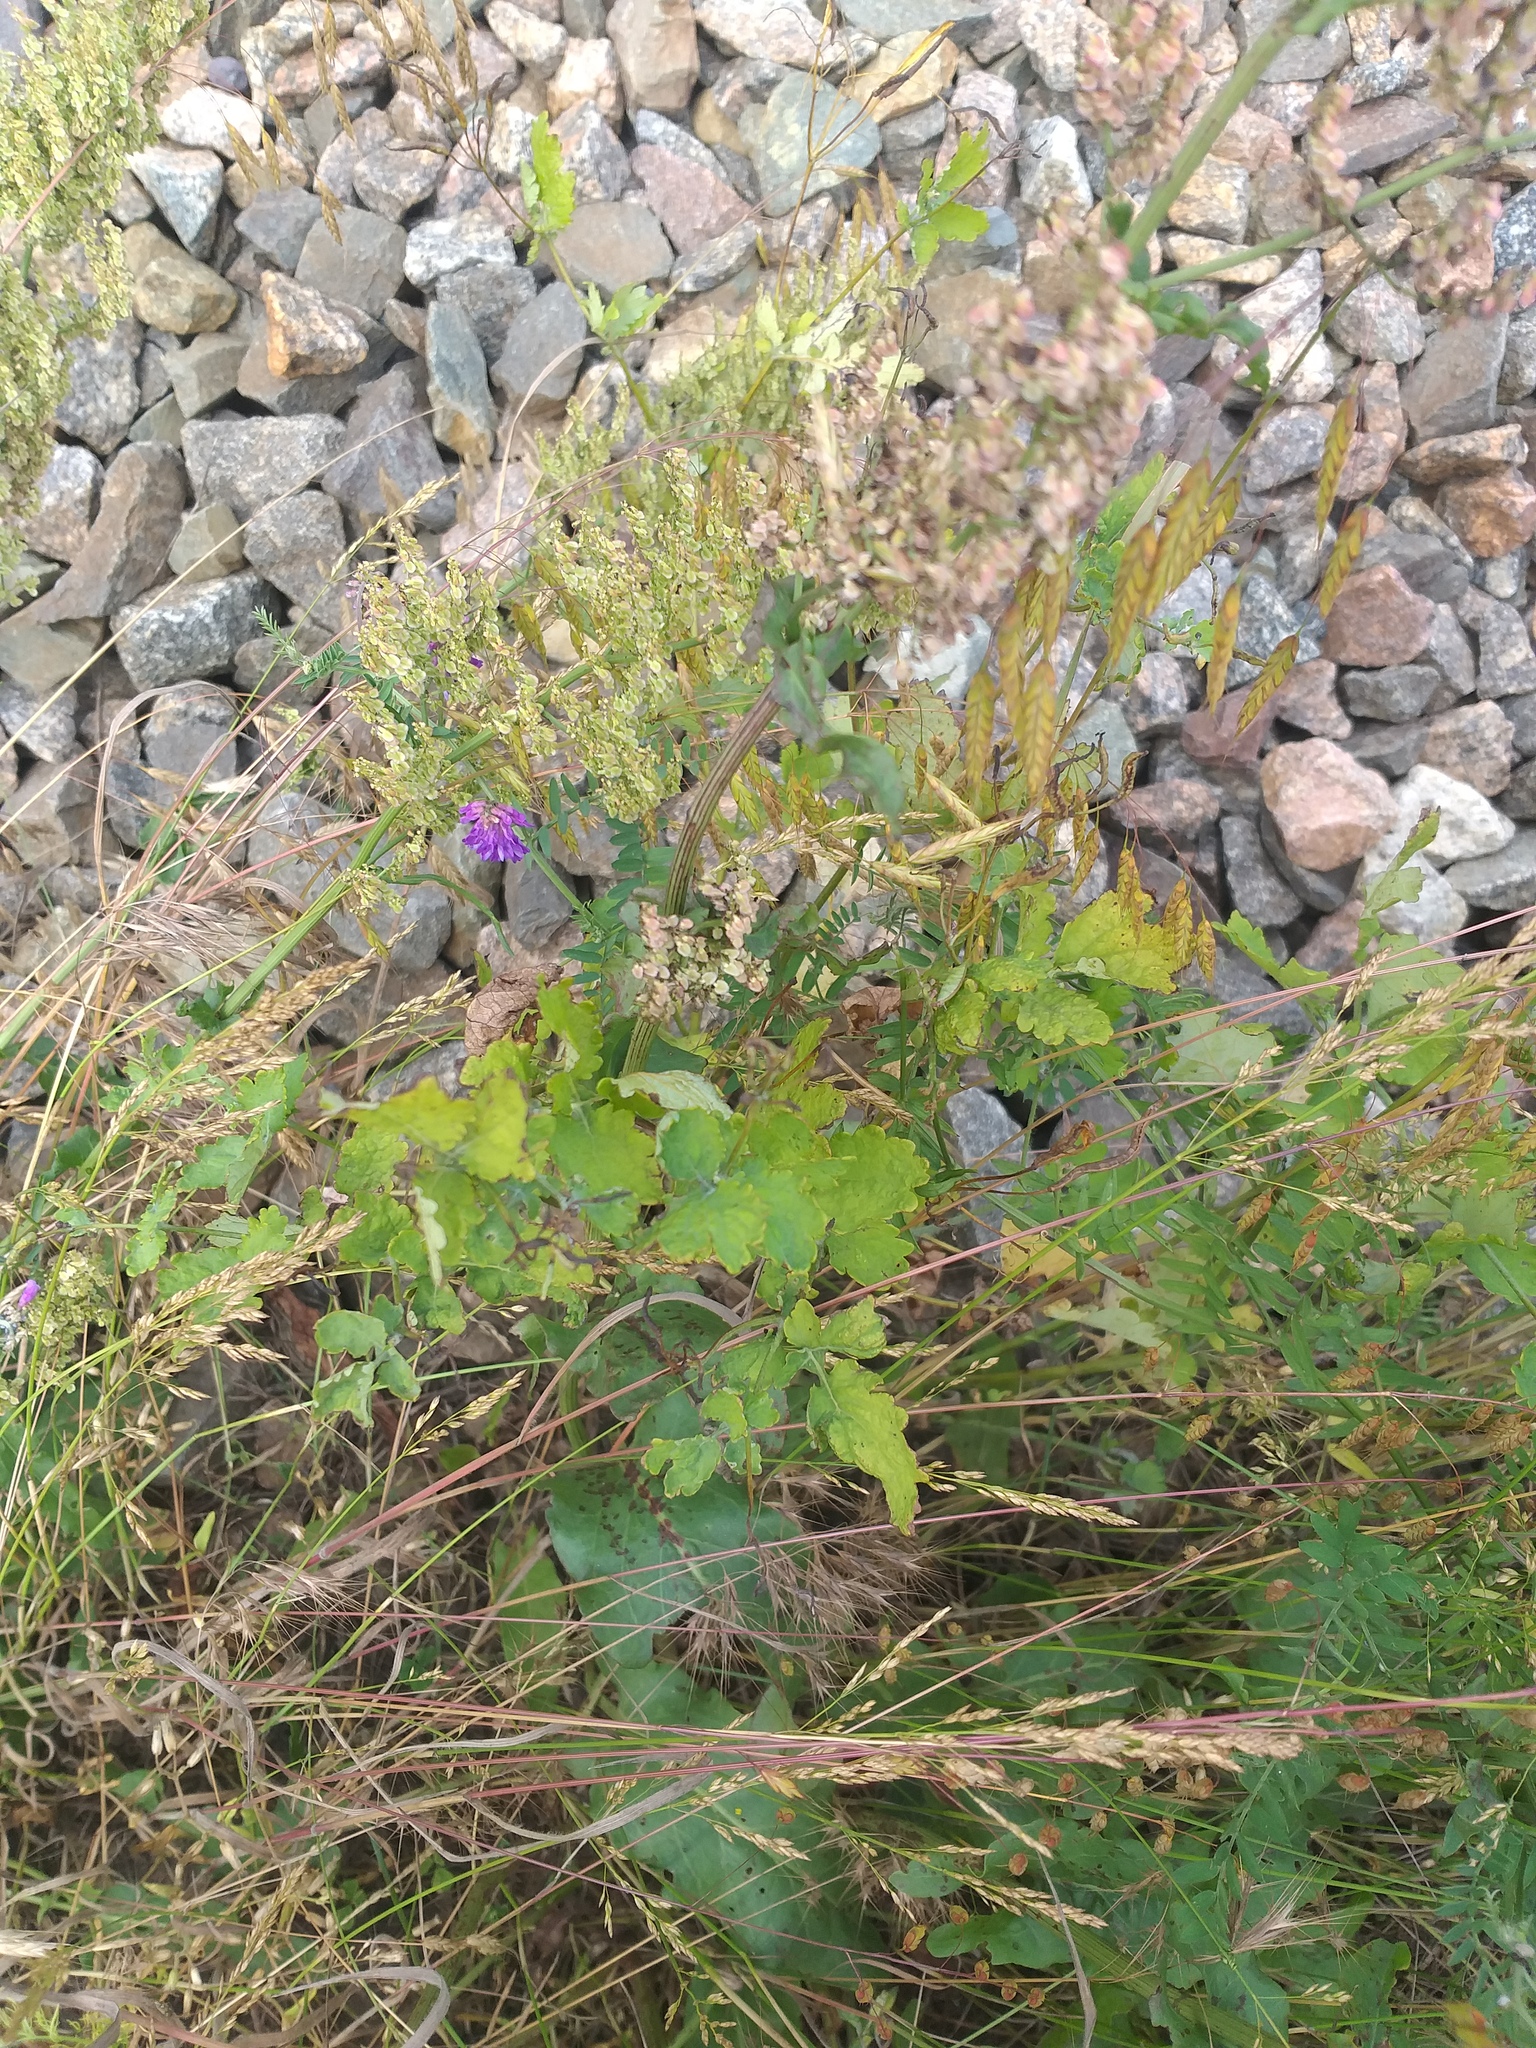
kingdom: Plantae
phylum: Tracheophyta
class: Magnoliopsida
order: Ranunculales
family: Papaveraceae
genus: Chelidonium
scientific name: Chelidonium majus
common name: Greater celandine
